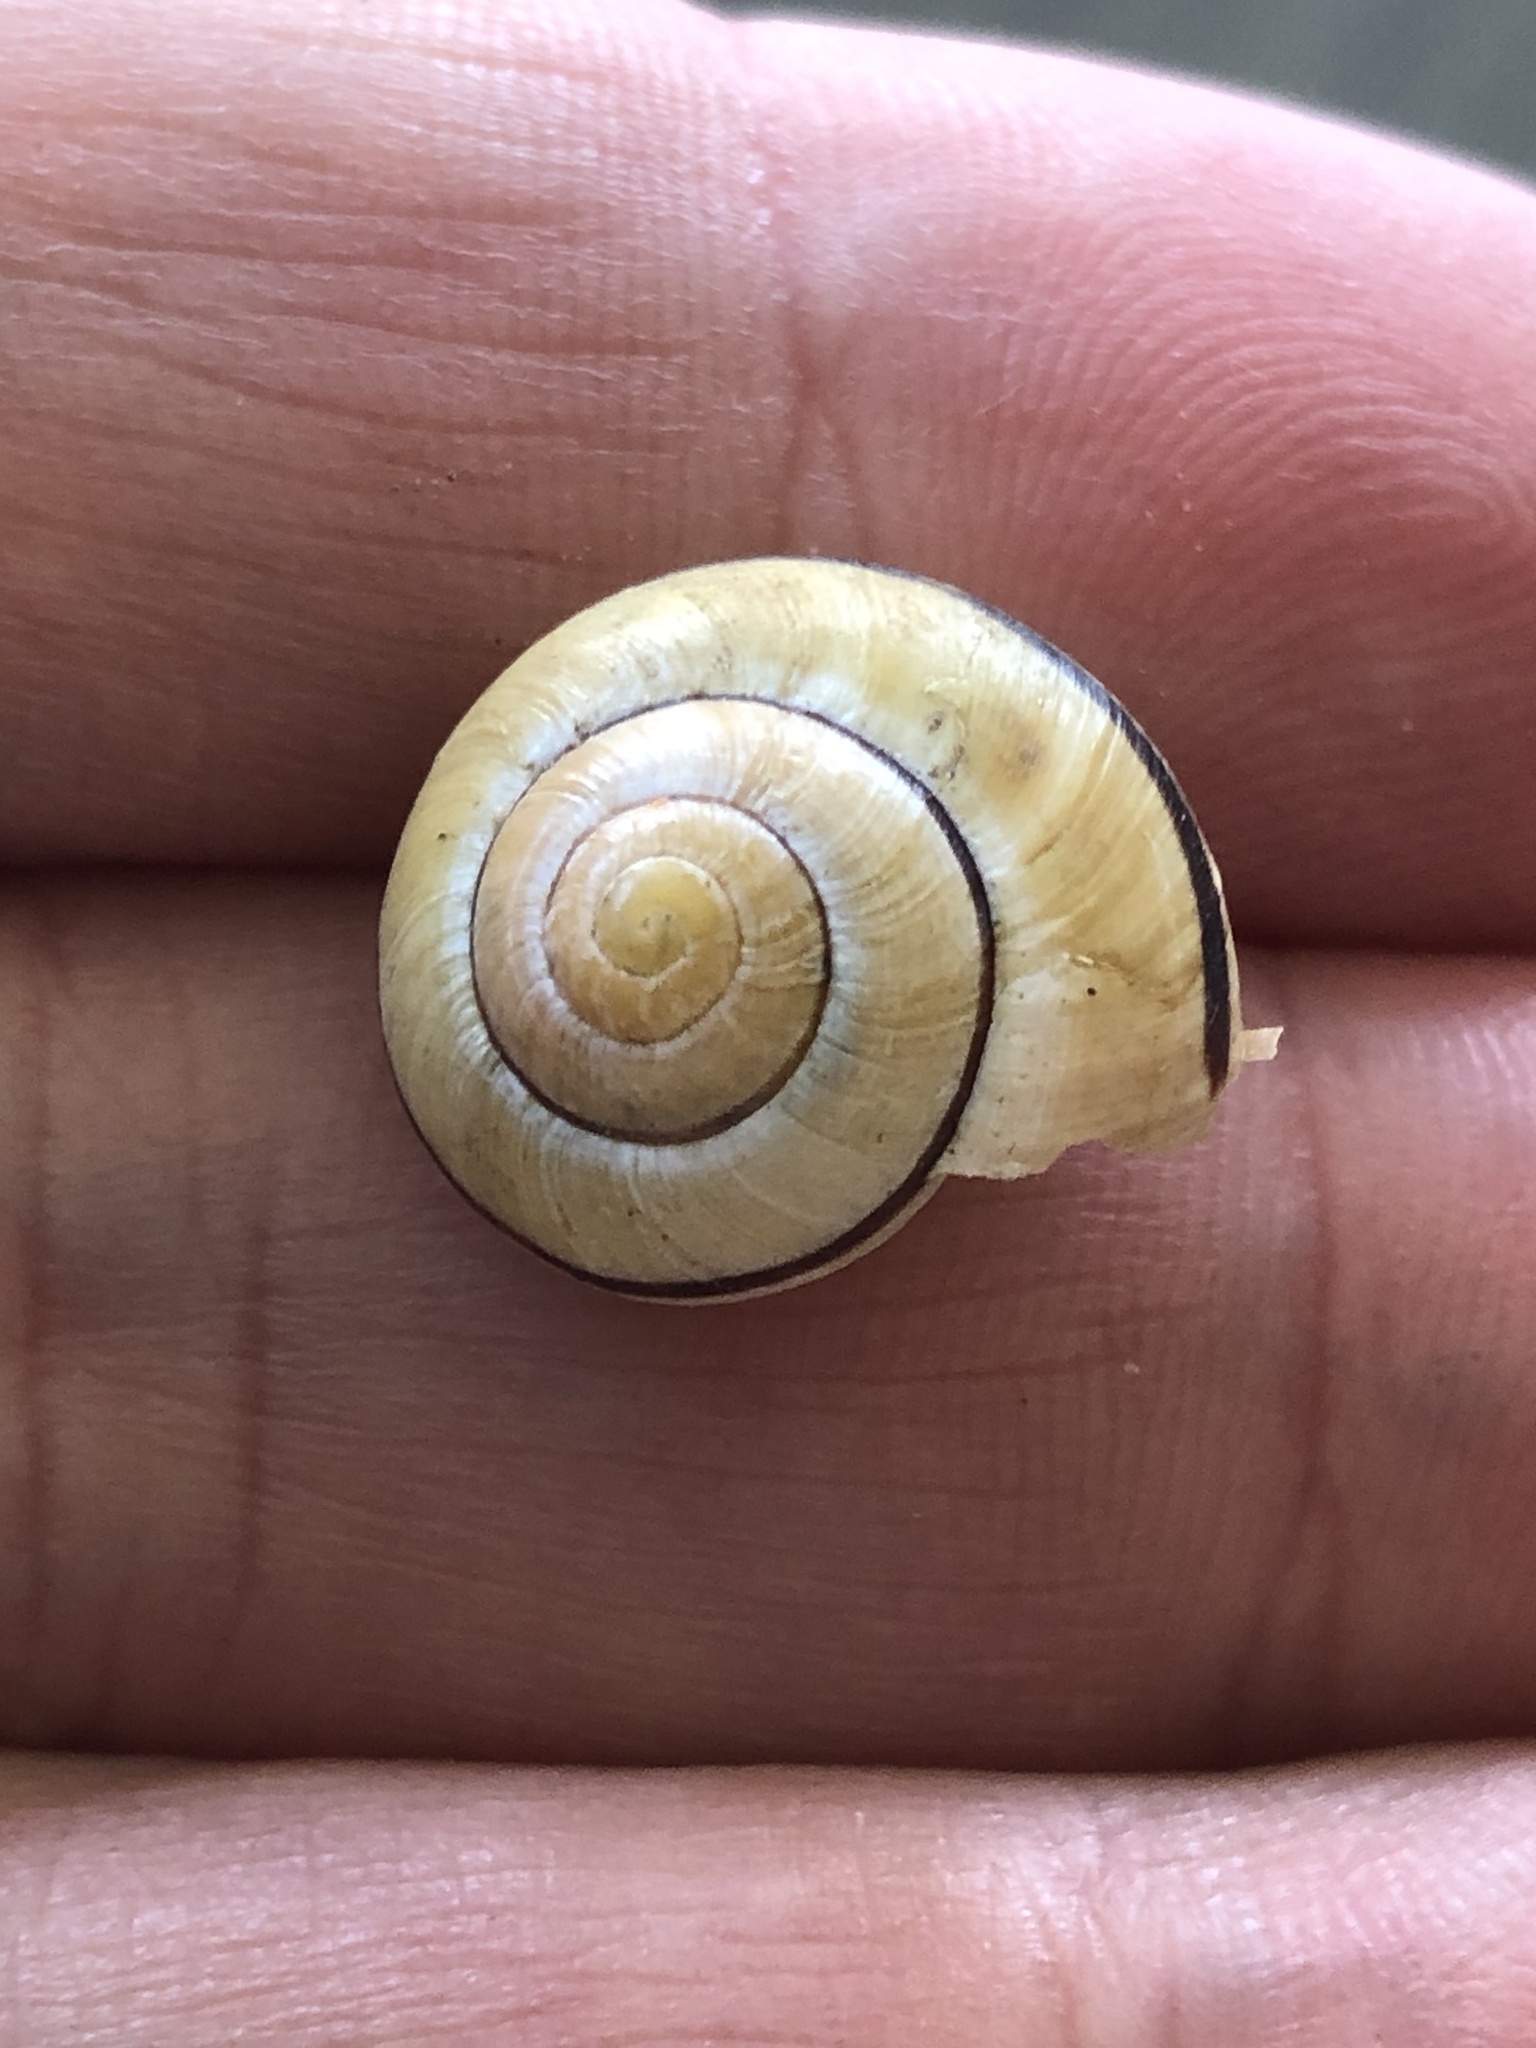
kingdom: Animalia
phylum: Mollusca
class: Gastropoda
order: Stylommatophora
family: Helicidae
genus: Cepaea
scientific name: Cepaea nemoralis
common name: Grovesnail
